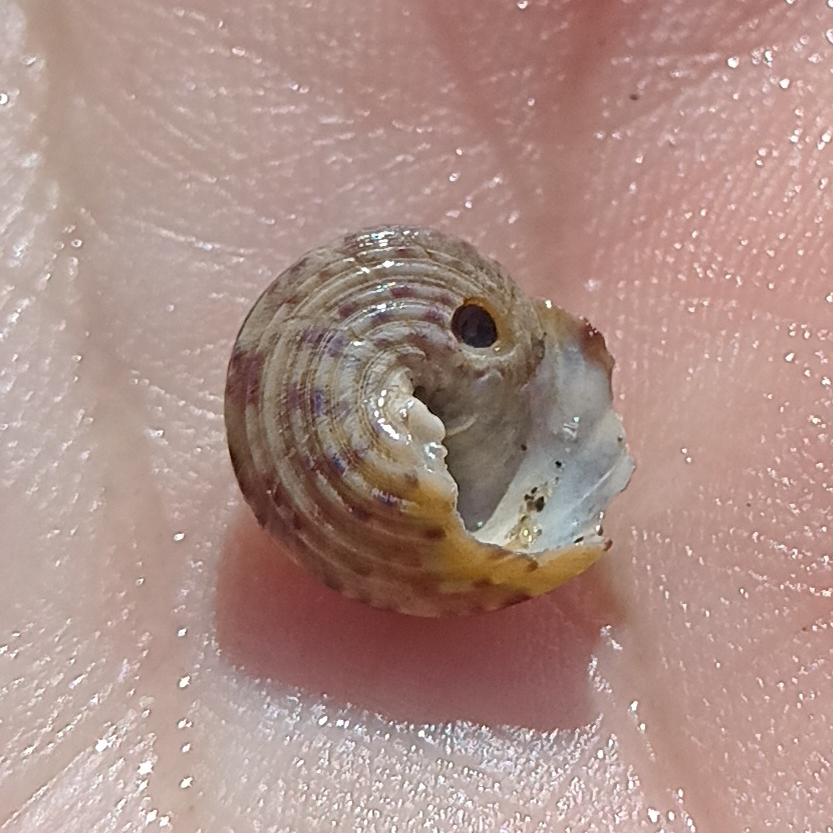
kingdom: Animalia
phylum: Mollusca
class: Gastropoda
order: Trochida
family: Tegulidae
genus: Agathistoma
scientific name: Agathistoma viridulum
